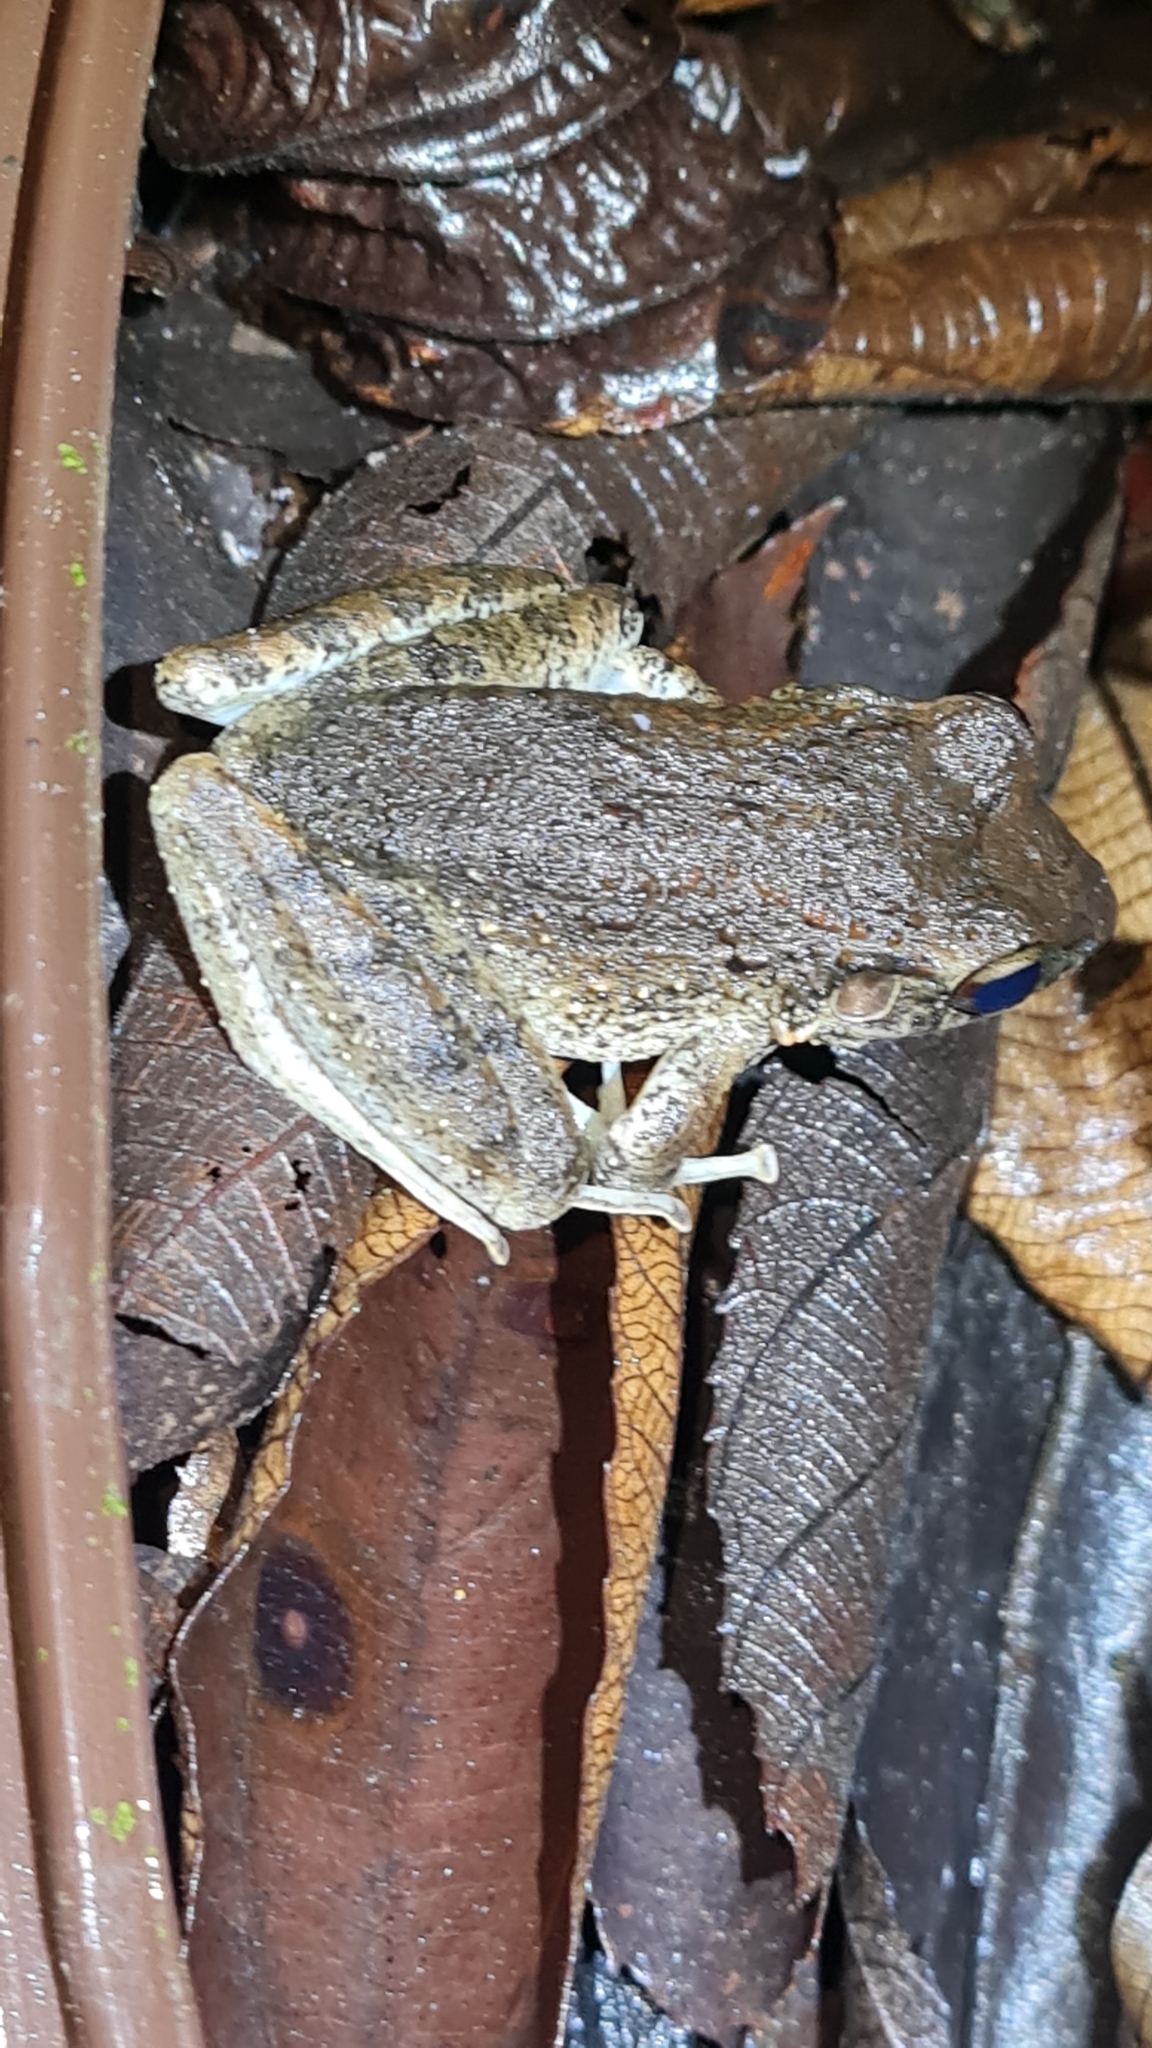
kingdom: Animalia
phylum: Chordata
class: Amphibia
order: Anura
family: Craugastoridae
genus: Craugastor
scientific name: Craugastor fitzingeri
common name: Fitzinger's robber frog
